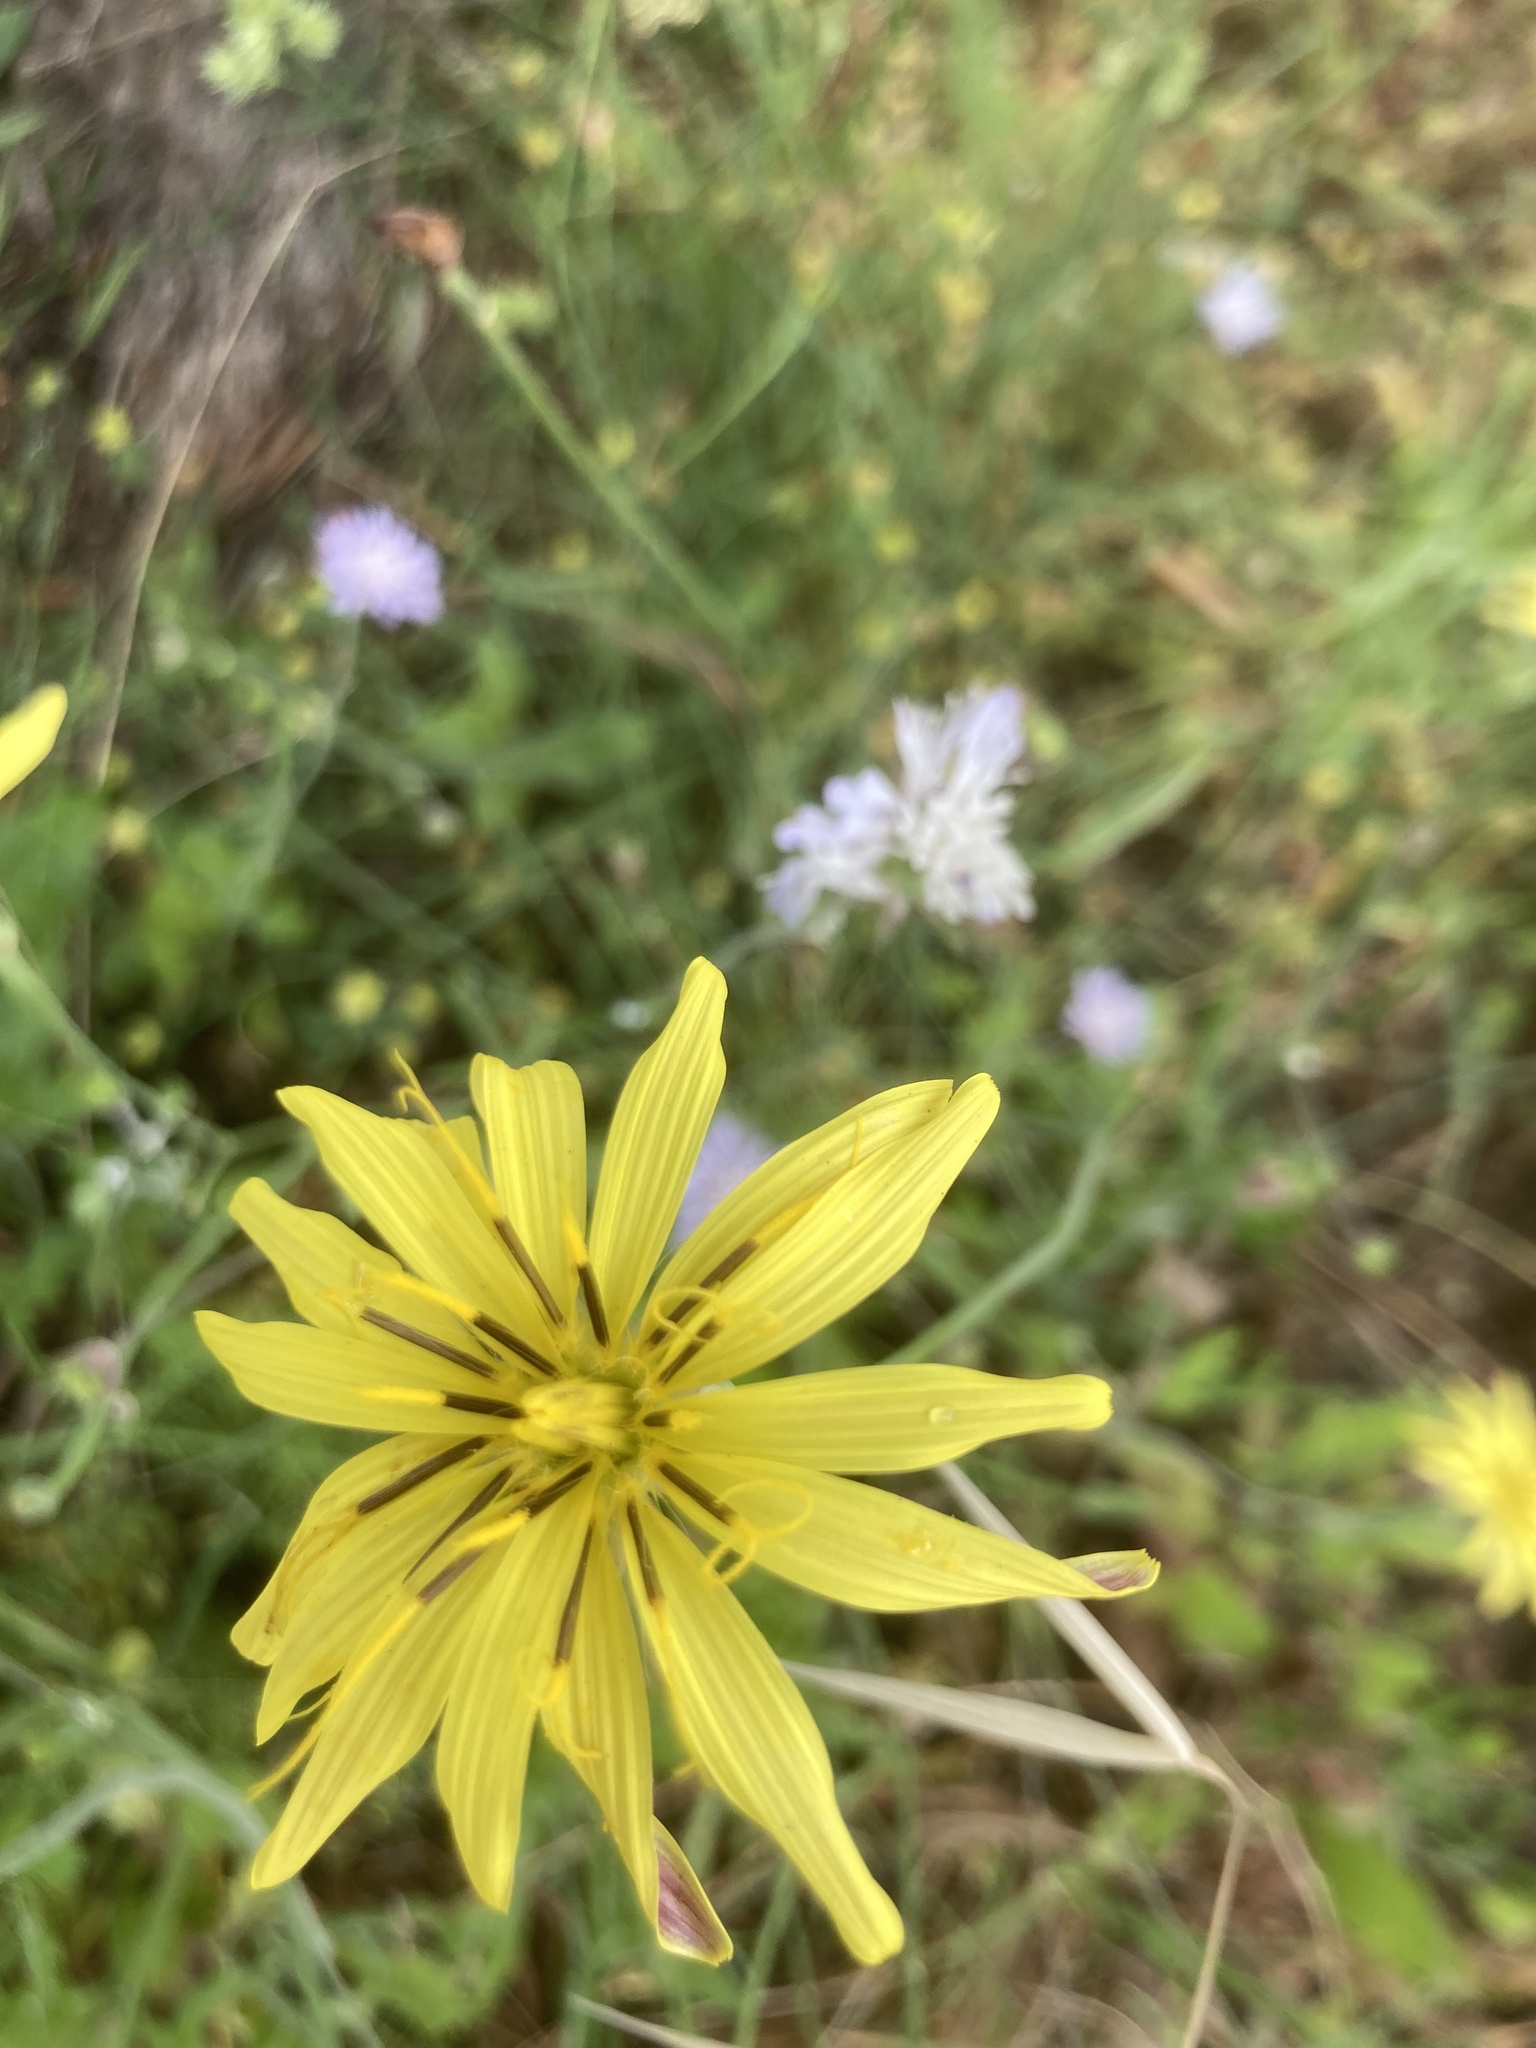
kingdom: Plantae
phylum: Tracheophyta
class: Magnoliopsida
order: Asterales
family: Asteraceae
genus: Candollea
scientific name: Candollea elata
